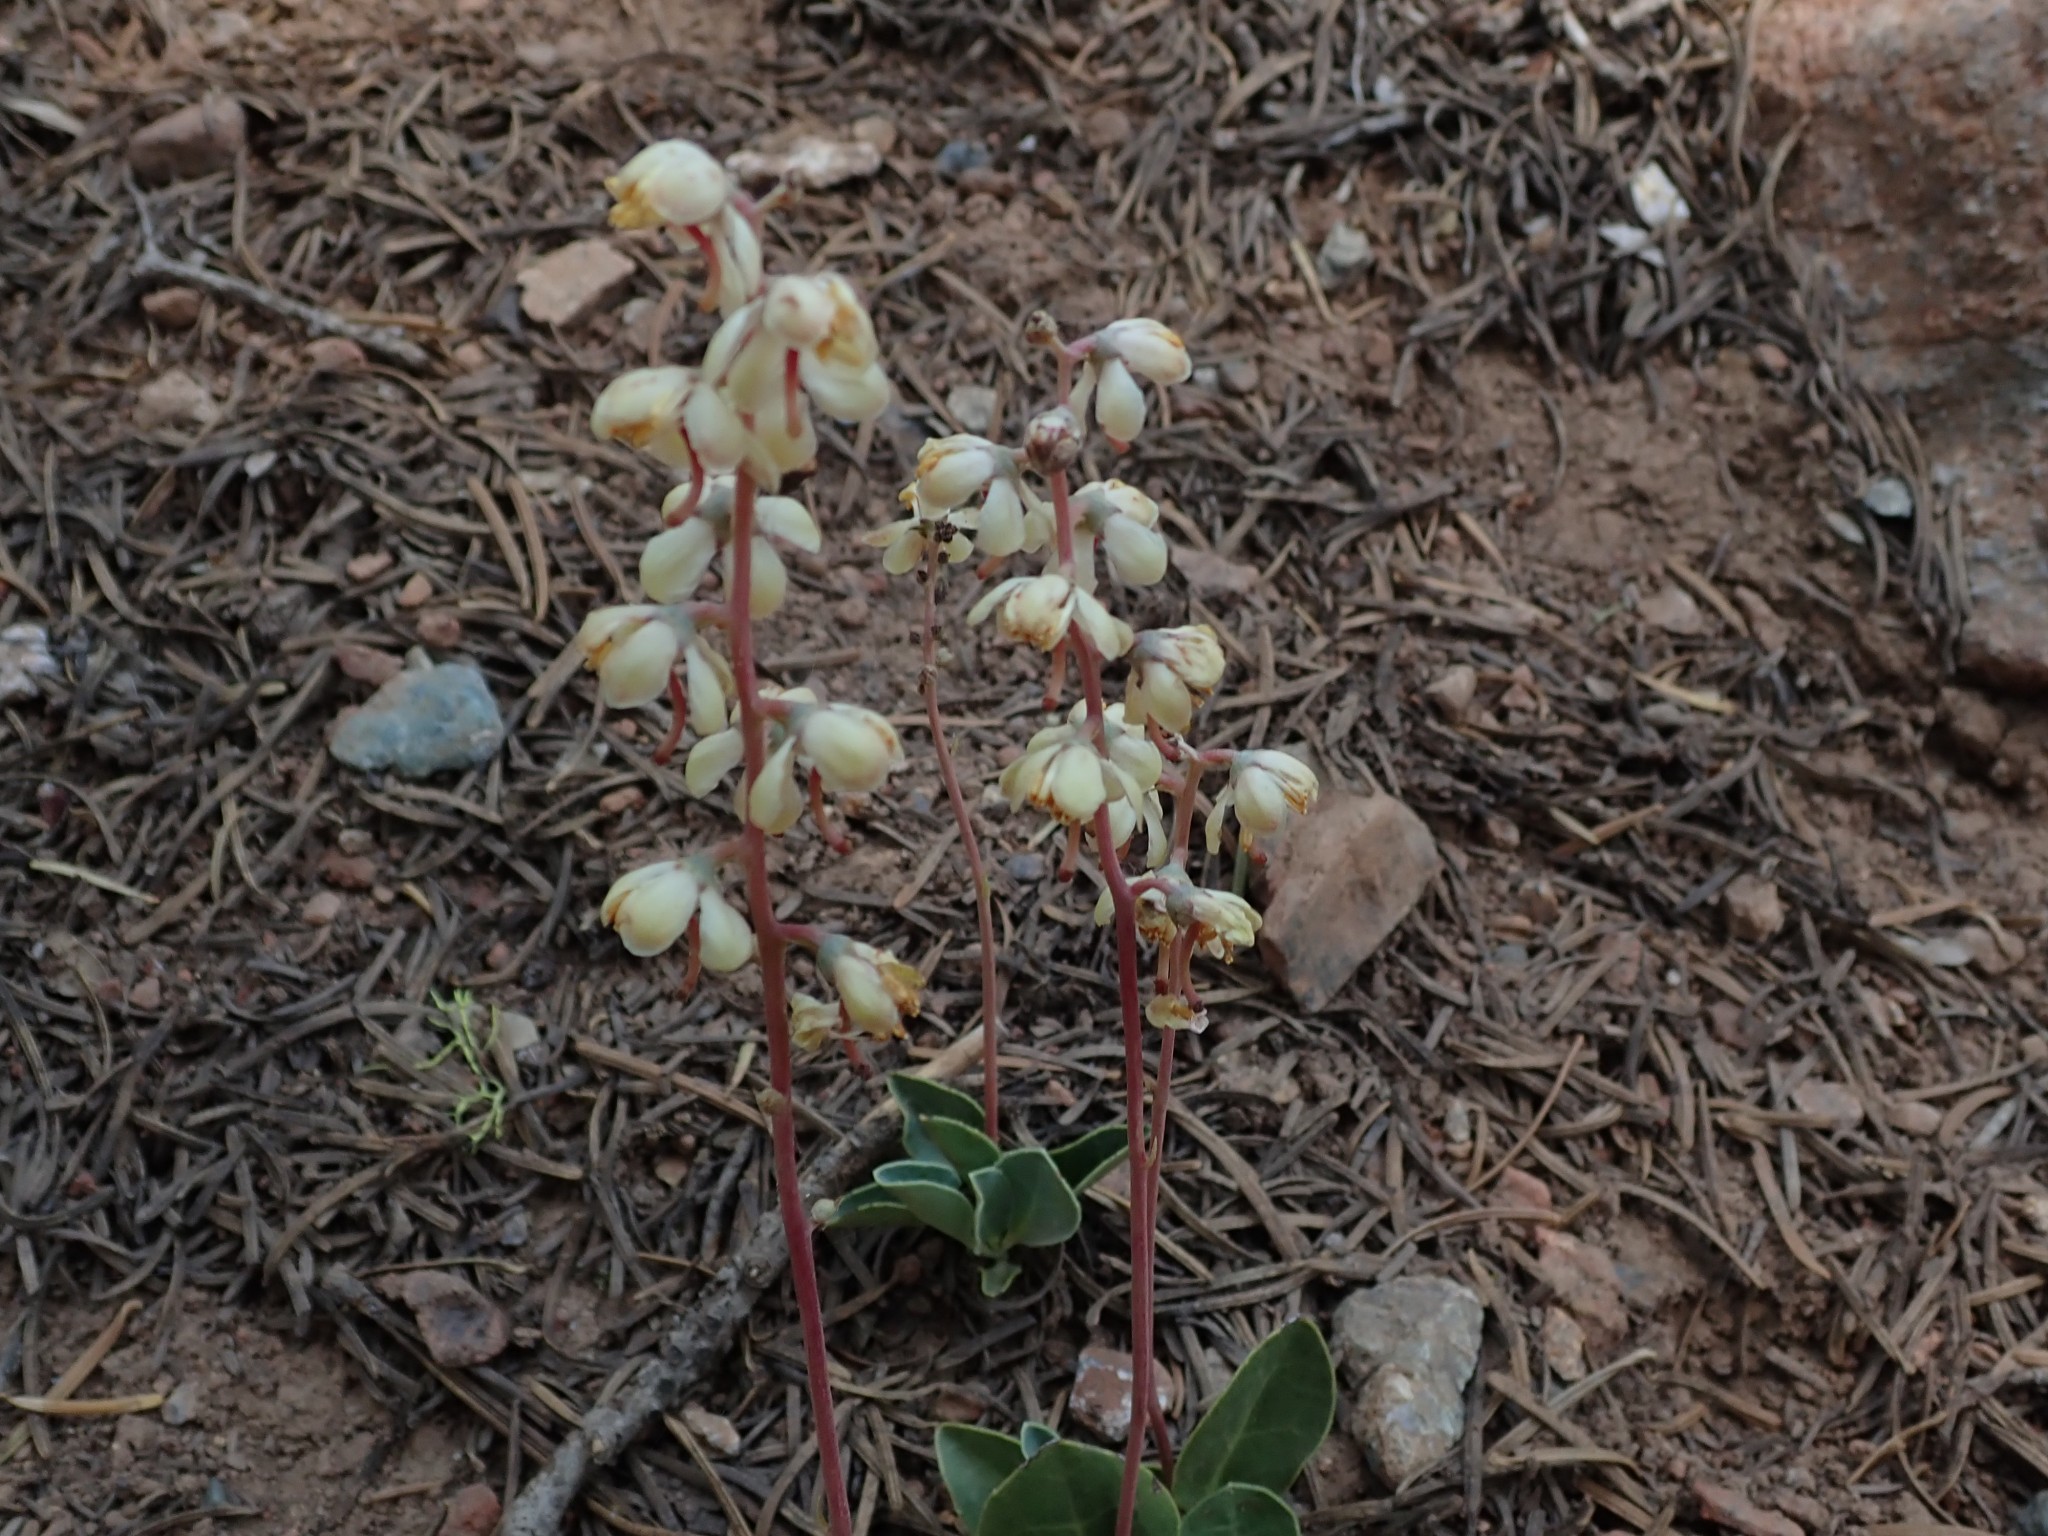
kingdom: Plantae
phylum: Tracheophyta
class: Magnoliopsida
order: Ericales
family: Ericaceae
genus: Pyrola
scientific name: Pyrola dentata
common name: Tooth-leaved wintergreen
